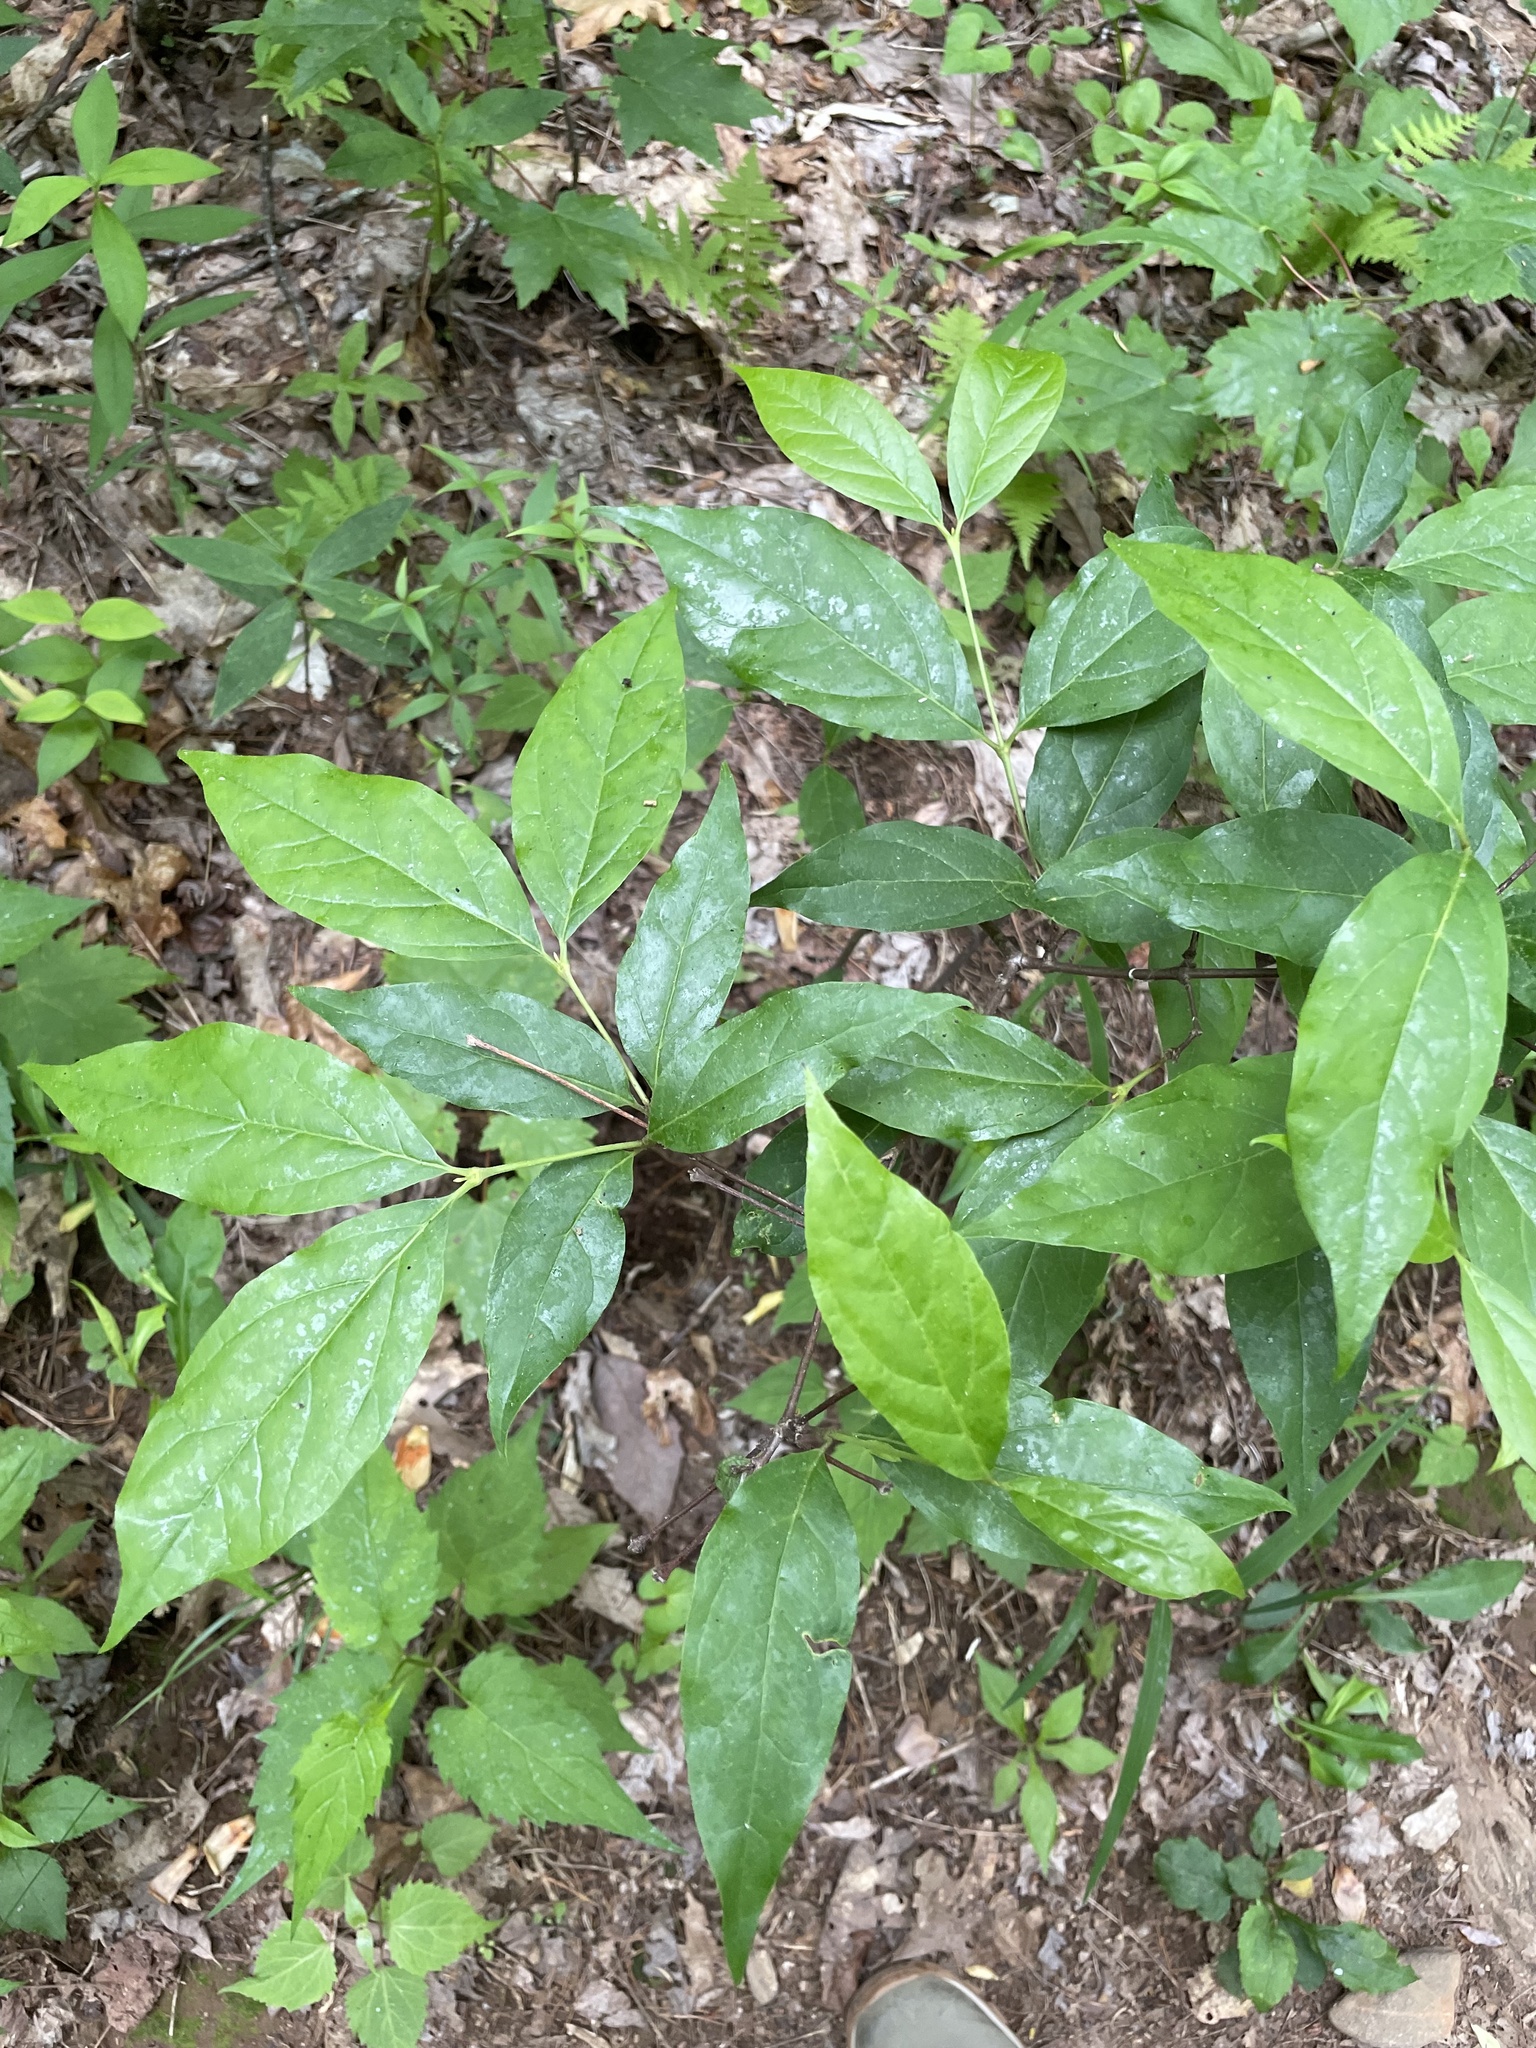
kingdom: Plantae
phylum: Tracheophyta
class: Magnoliopsida
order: Laurales
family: Calycanthaceae
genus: Calycanthus
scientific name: Calycanthus floridus
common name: Carolina-allspice
